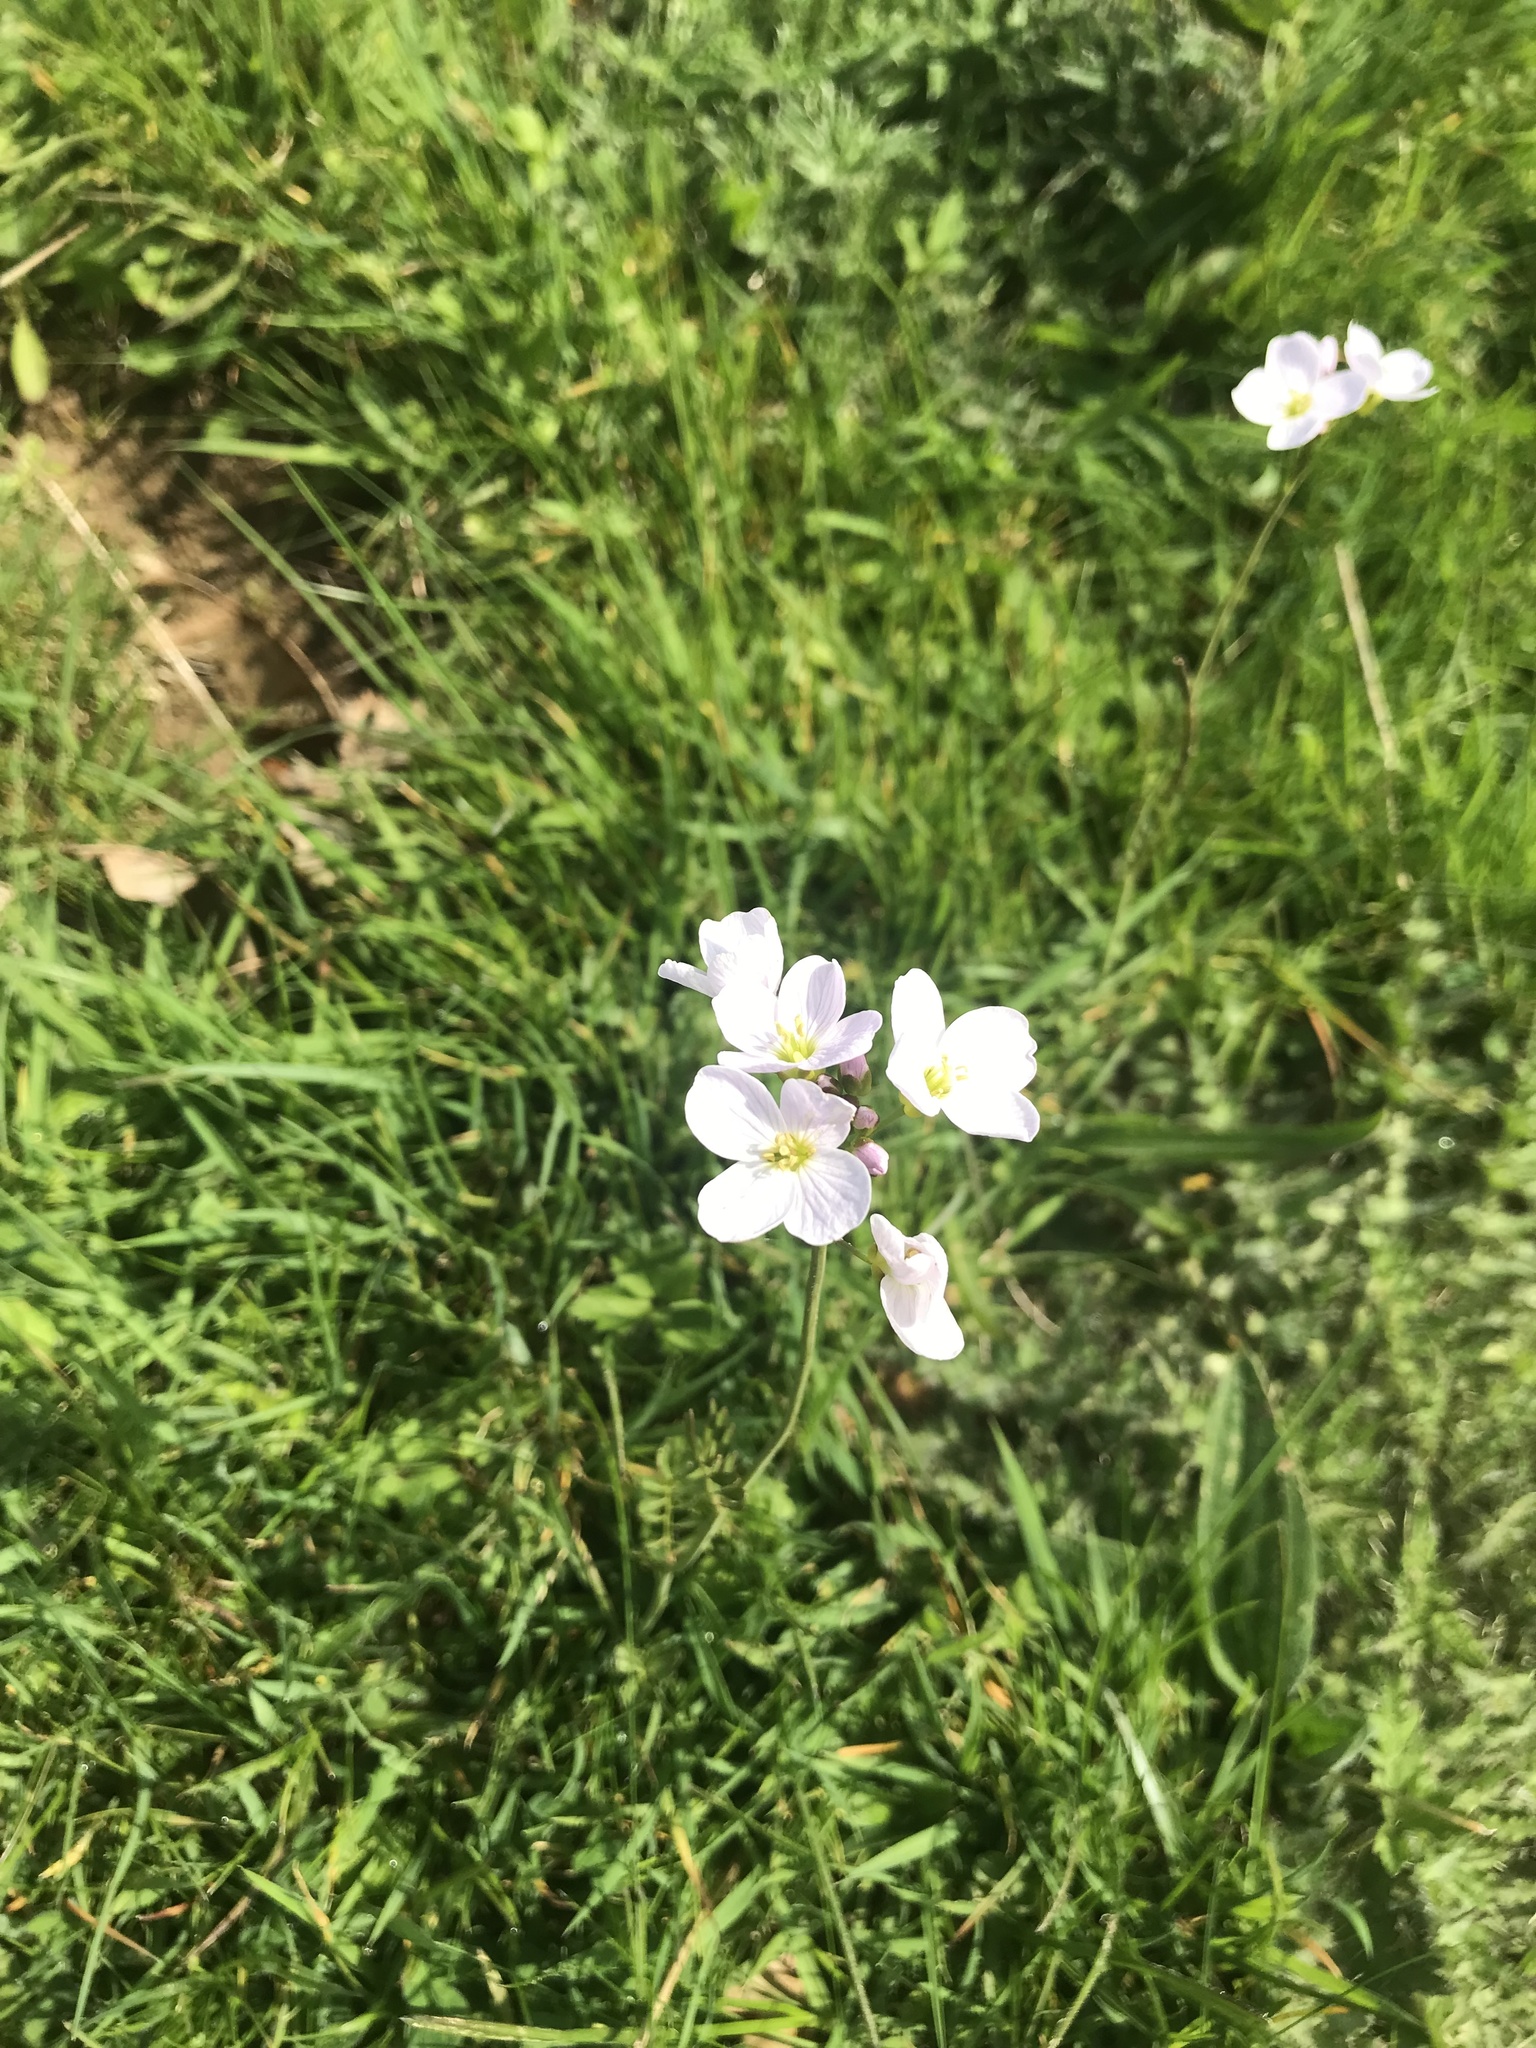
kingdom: Plantae
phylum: Tracheophyta
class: Magnoliopsida
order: Brassicales
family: Brassicaceae
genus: Cardamine
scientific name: Cardamine pratensis
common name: Cuckoo flower
